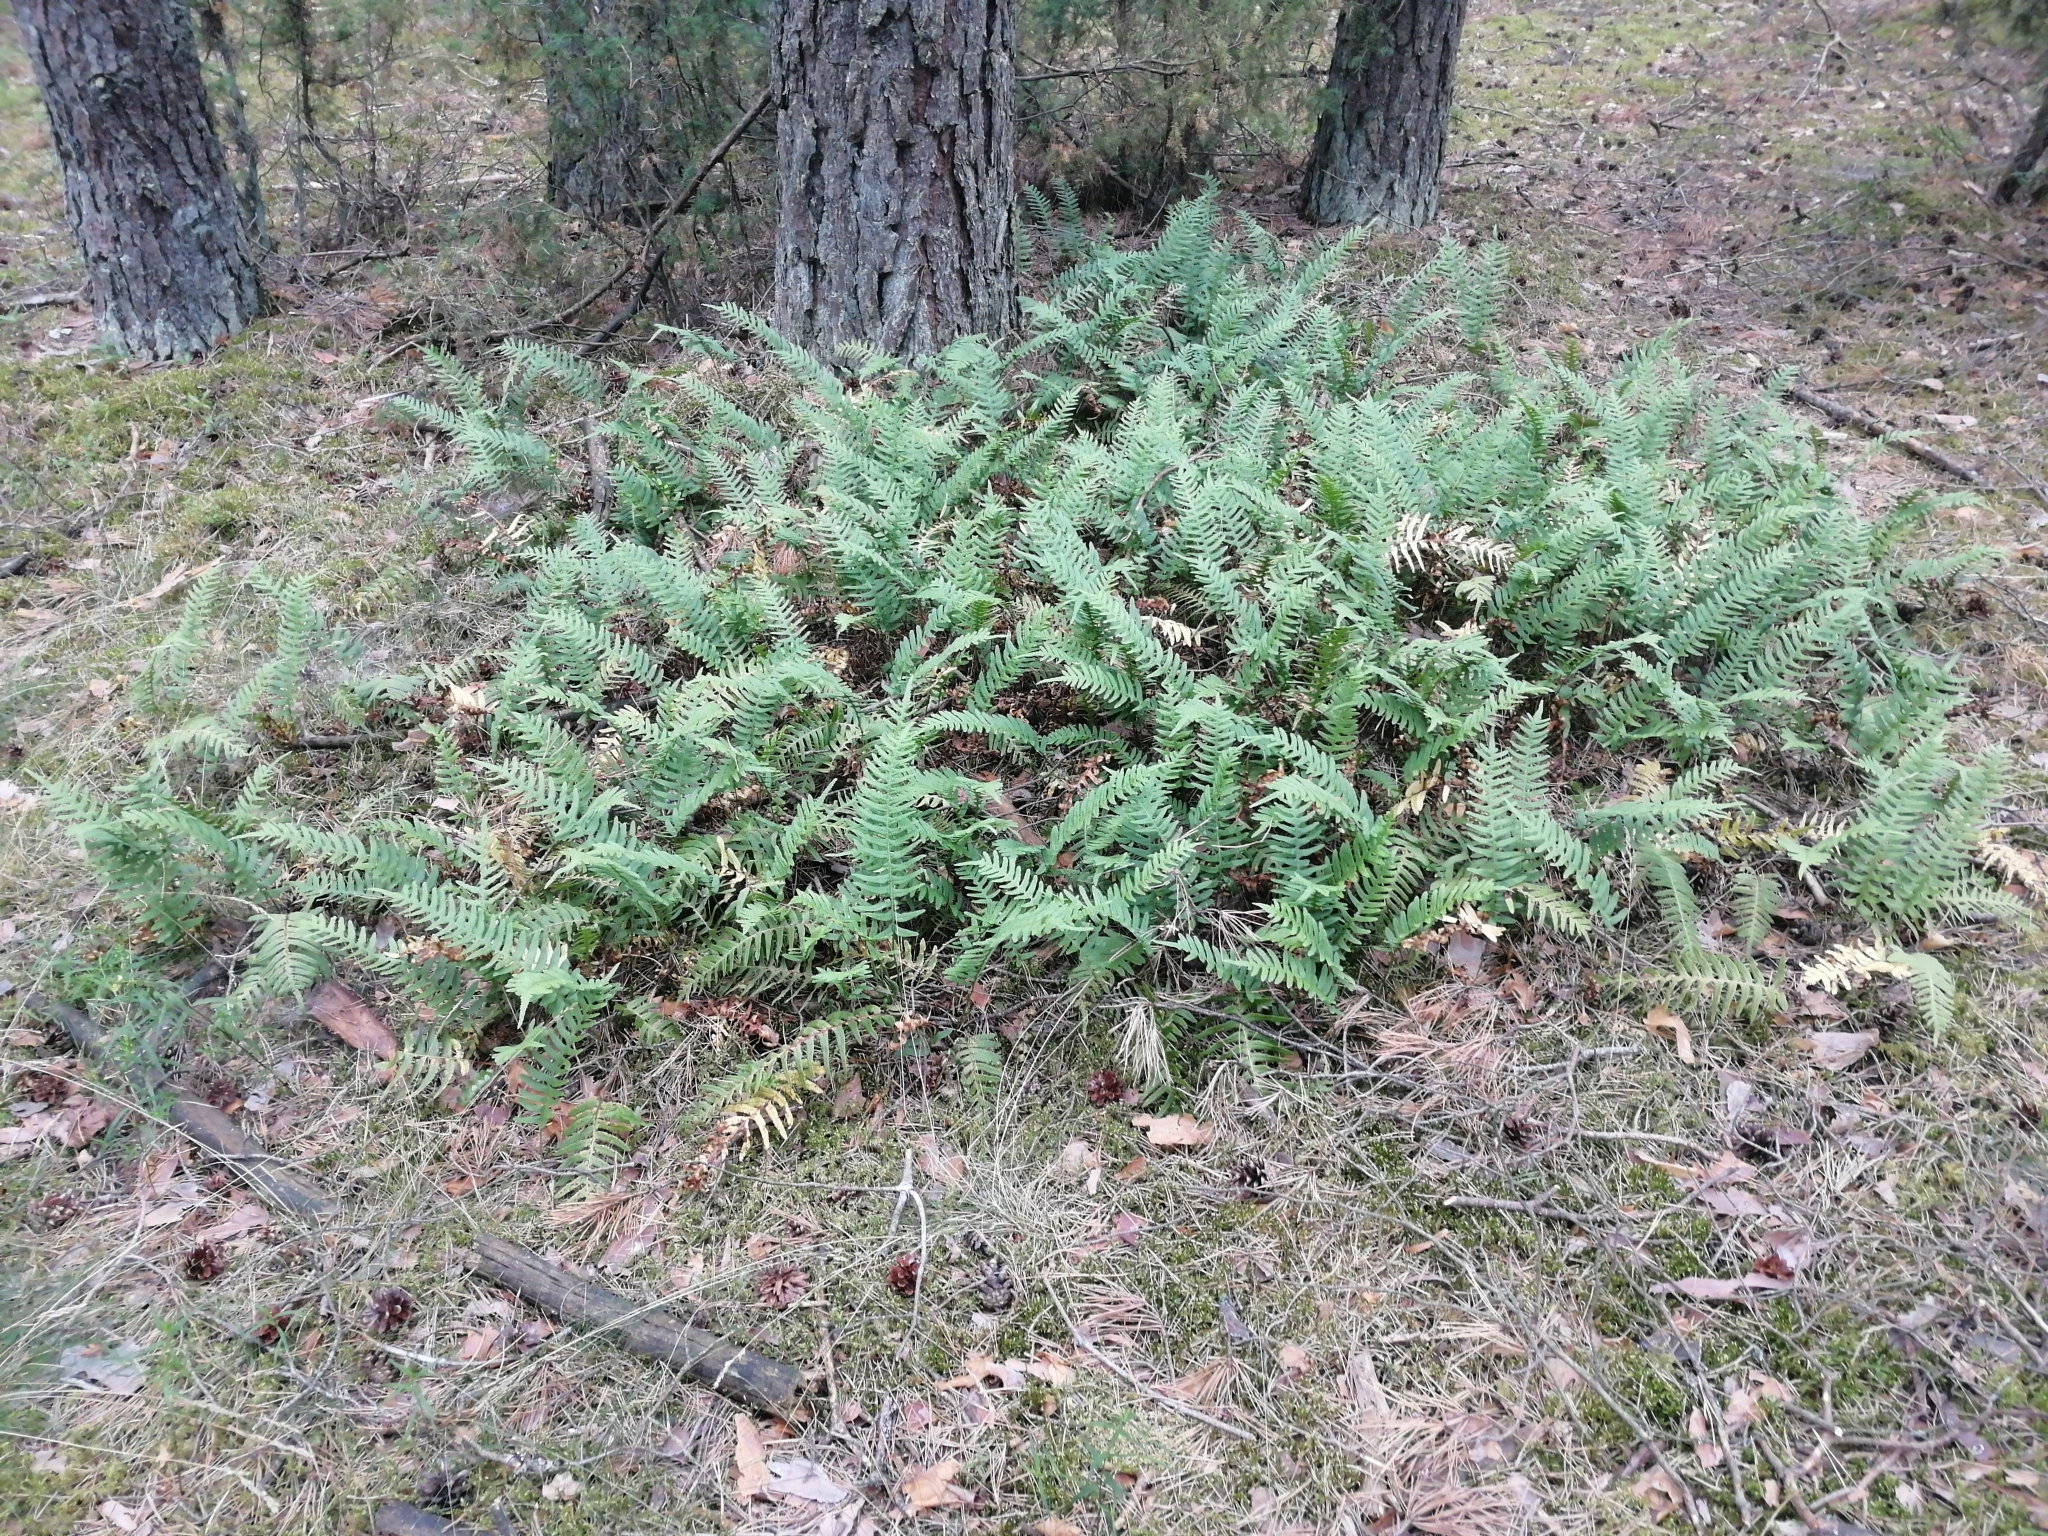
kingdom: Plantae
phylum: Tracheophyta
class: Polypodiopsida
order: Polypodiales
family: Polypodiaceae
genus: Polypodium
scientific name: Polypodium vulgare
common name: Common polypody
